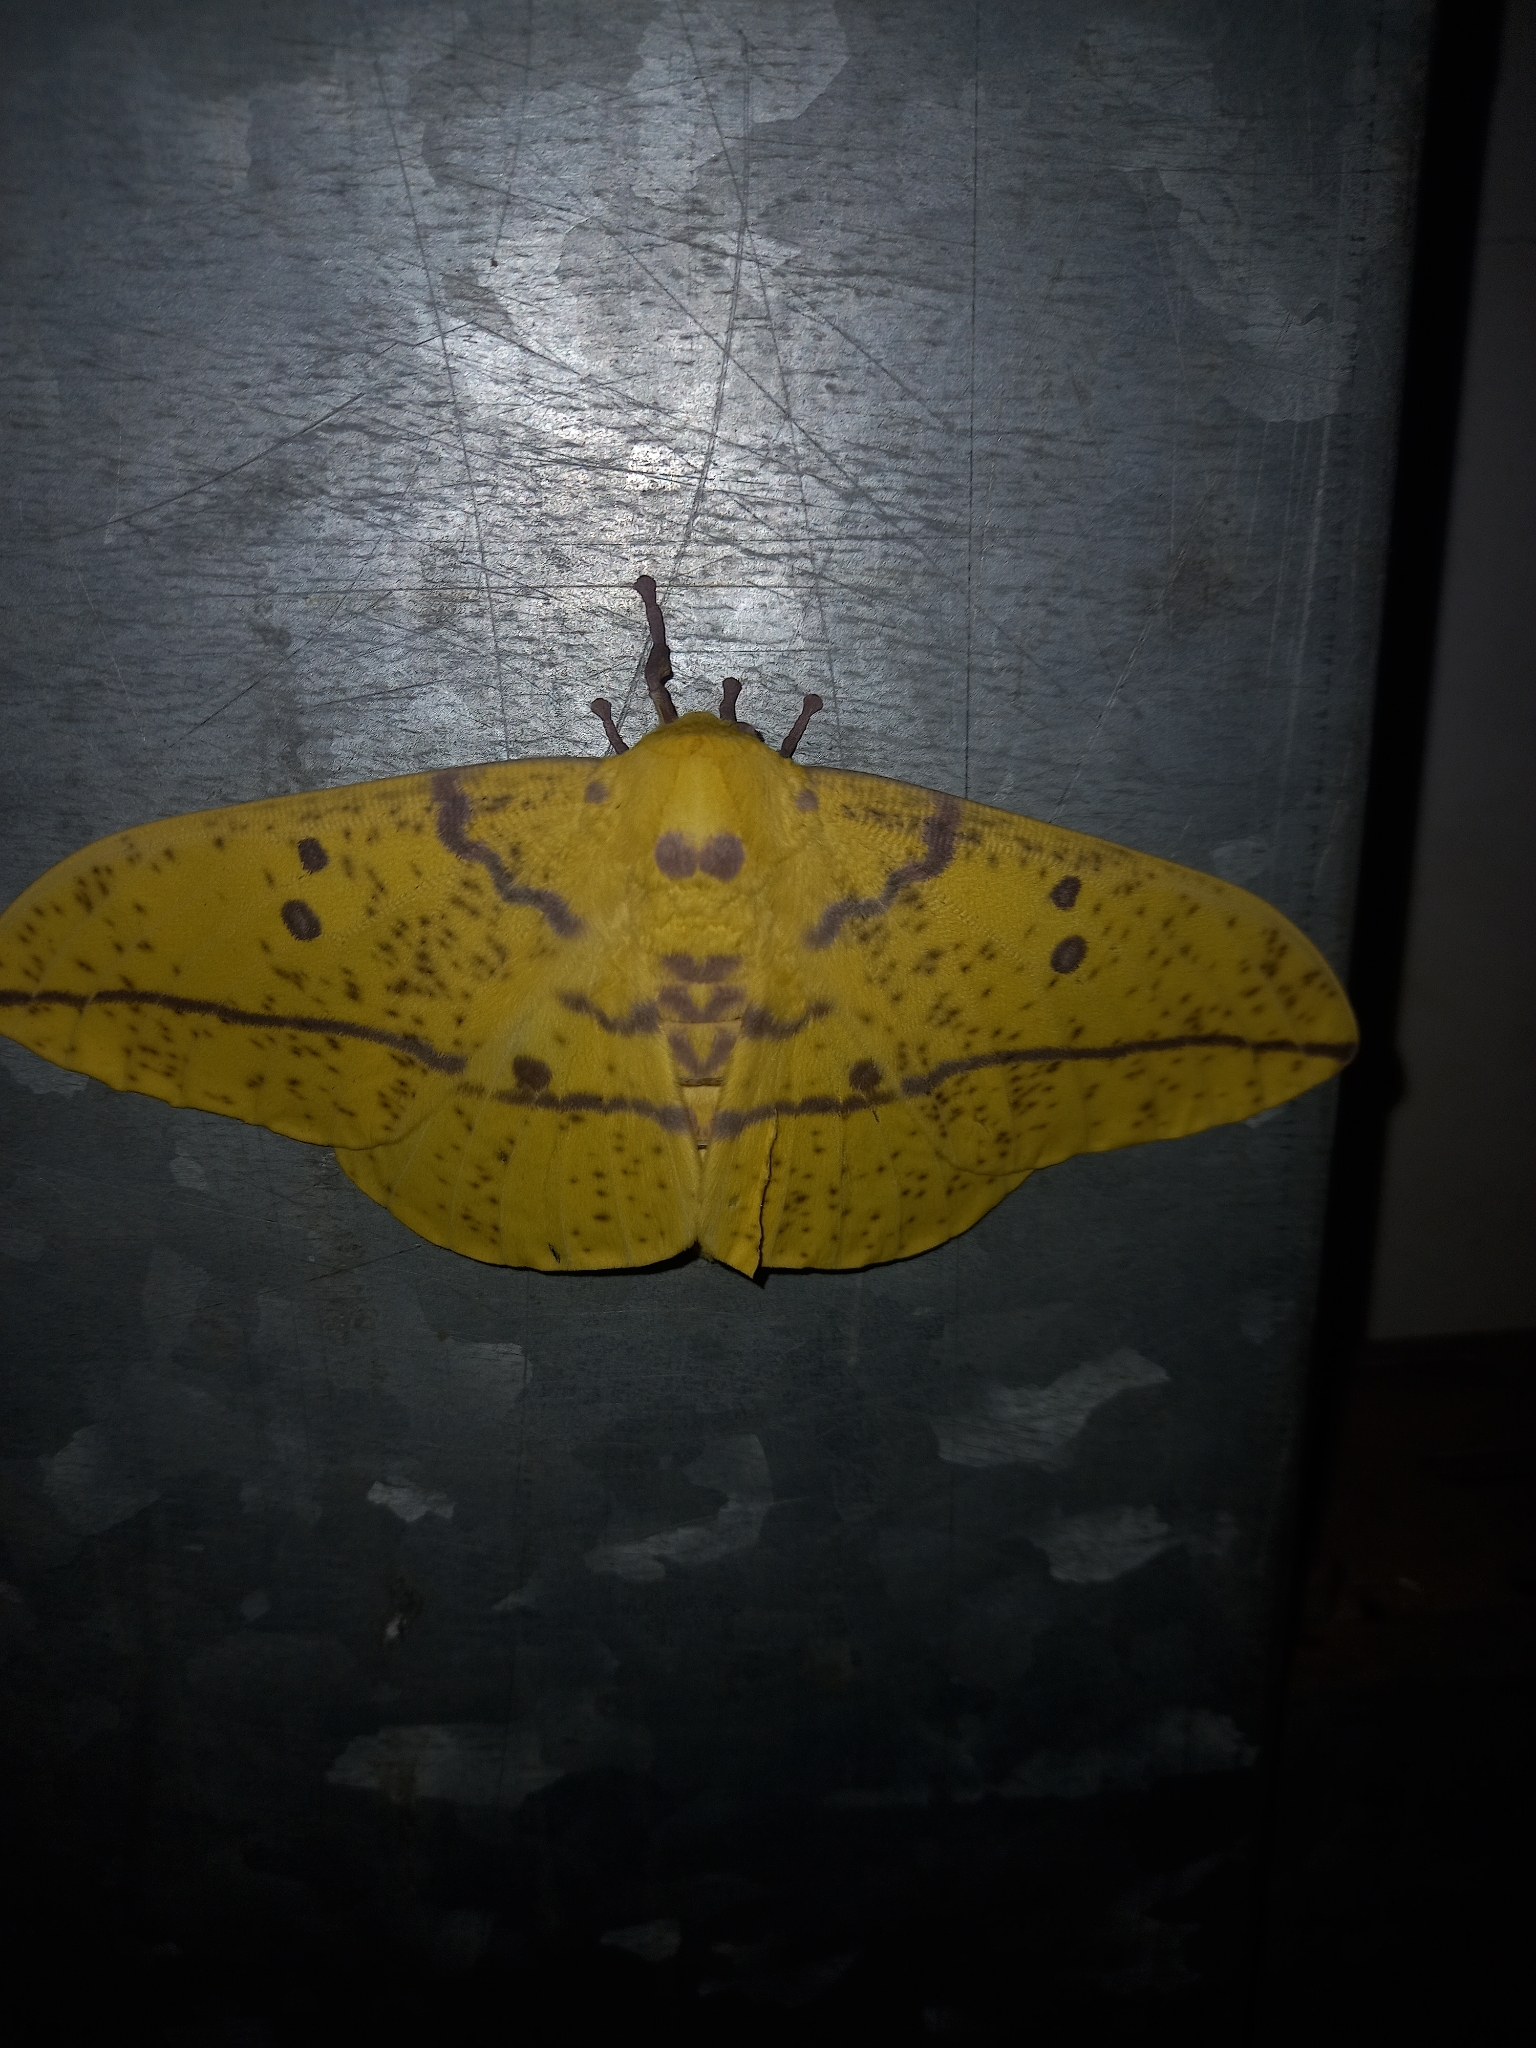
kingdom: Animalia
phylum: Arthropoda
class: Insecta
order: Lepidoptera
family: Saturniidae
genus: Eacles
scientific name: Eacles imperialis
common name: Imperial moth
